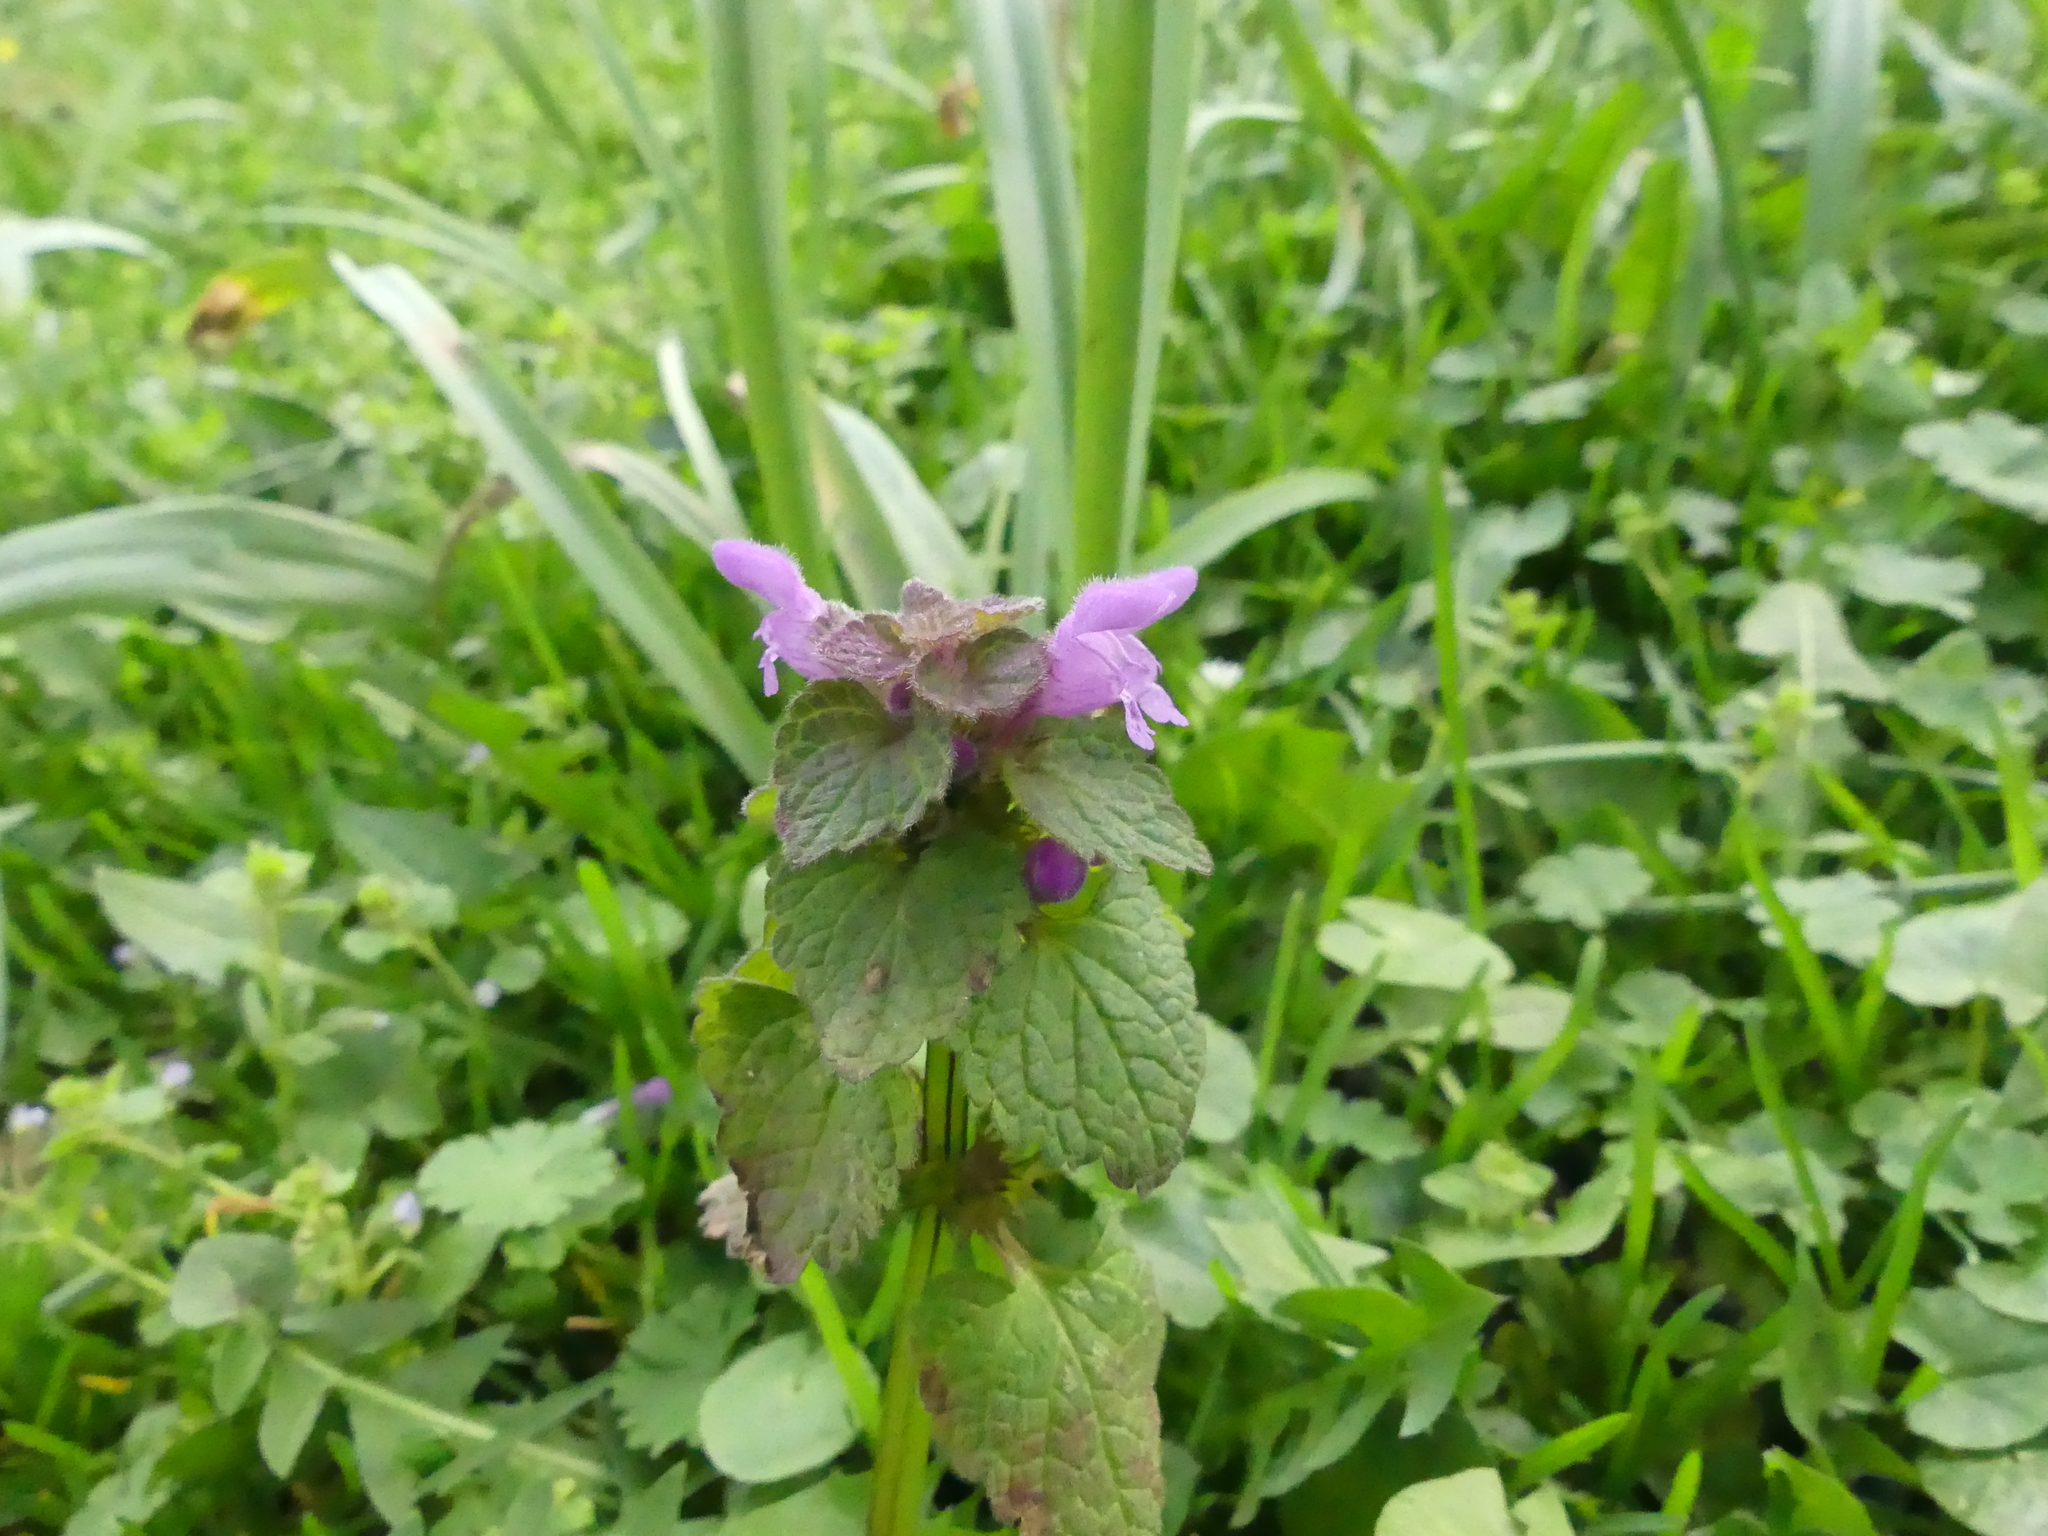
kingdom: Plantae
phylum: Tracheophyta
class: Magnoliopsida
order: Lamiales
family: Lamiaceae
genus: Lamium
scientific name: Lamium purpureum
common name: Red dead-nettle
